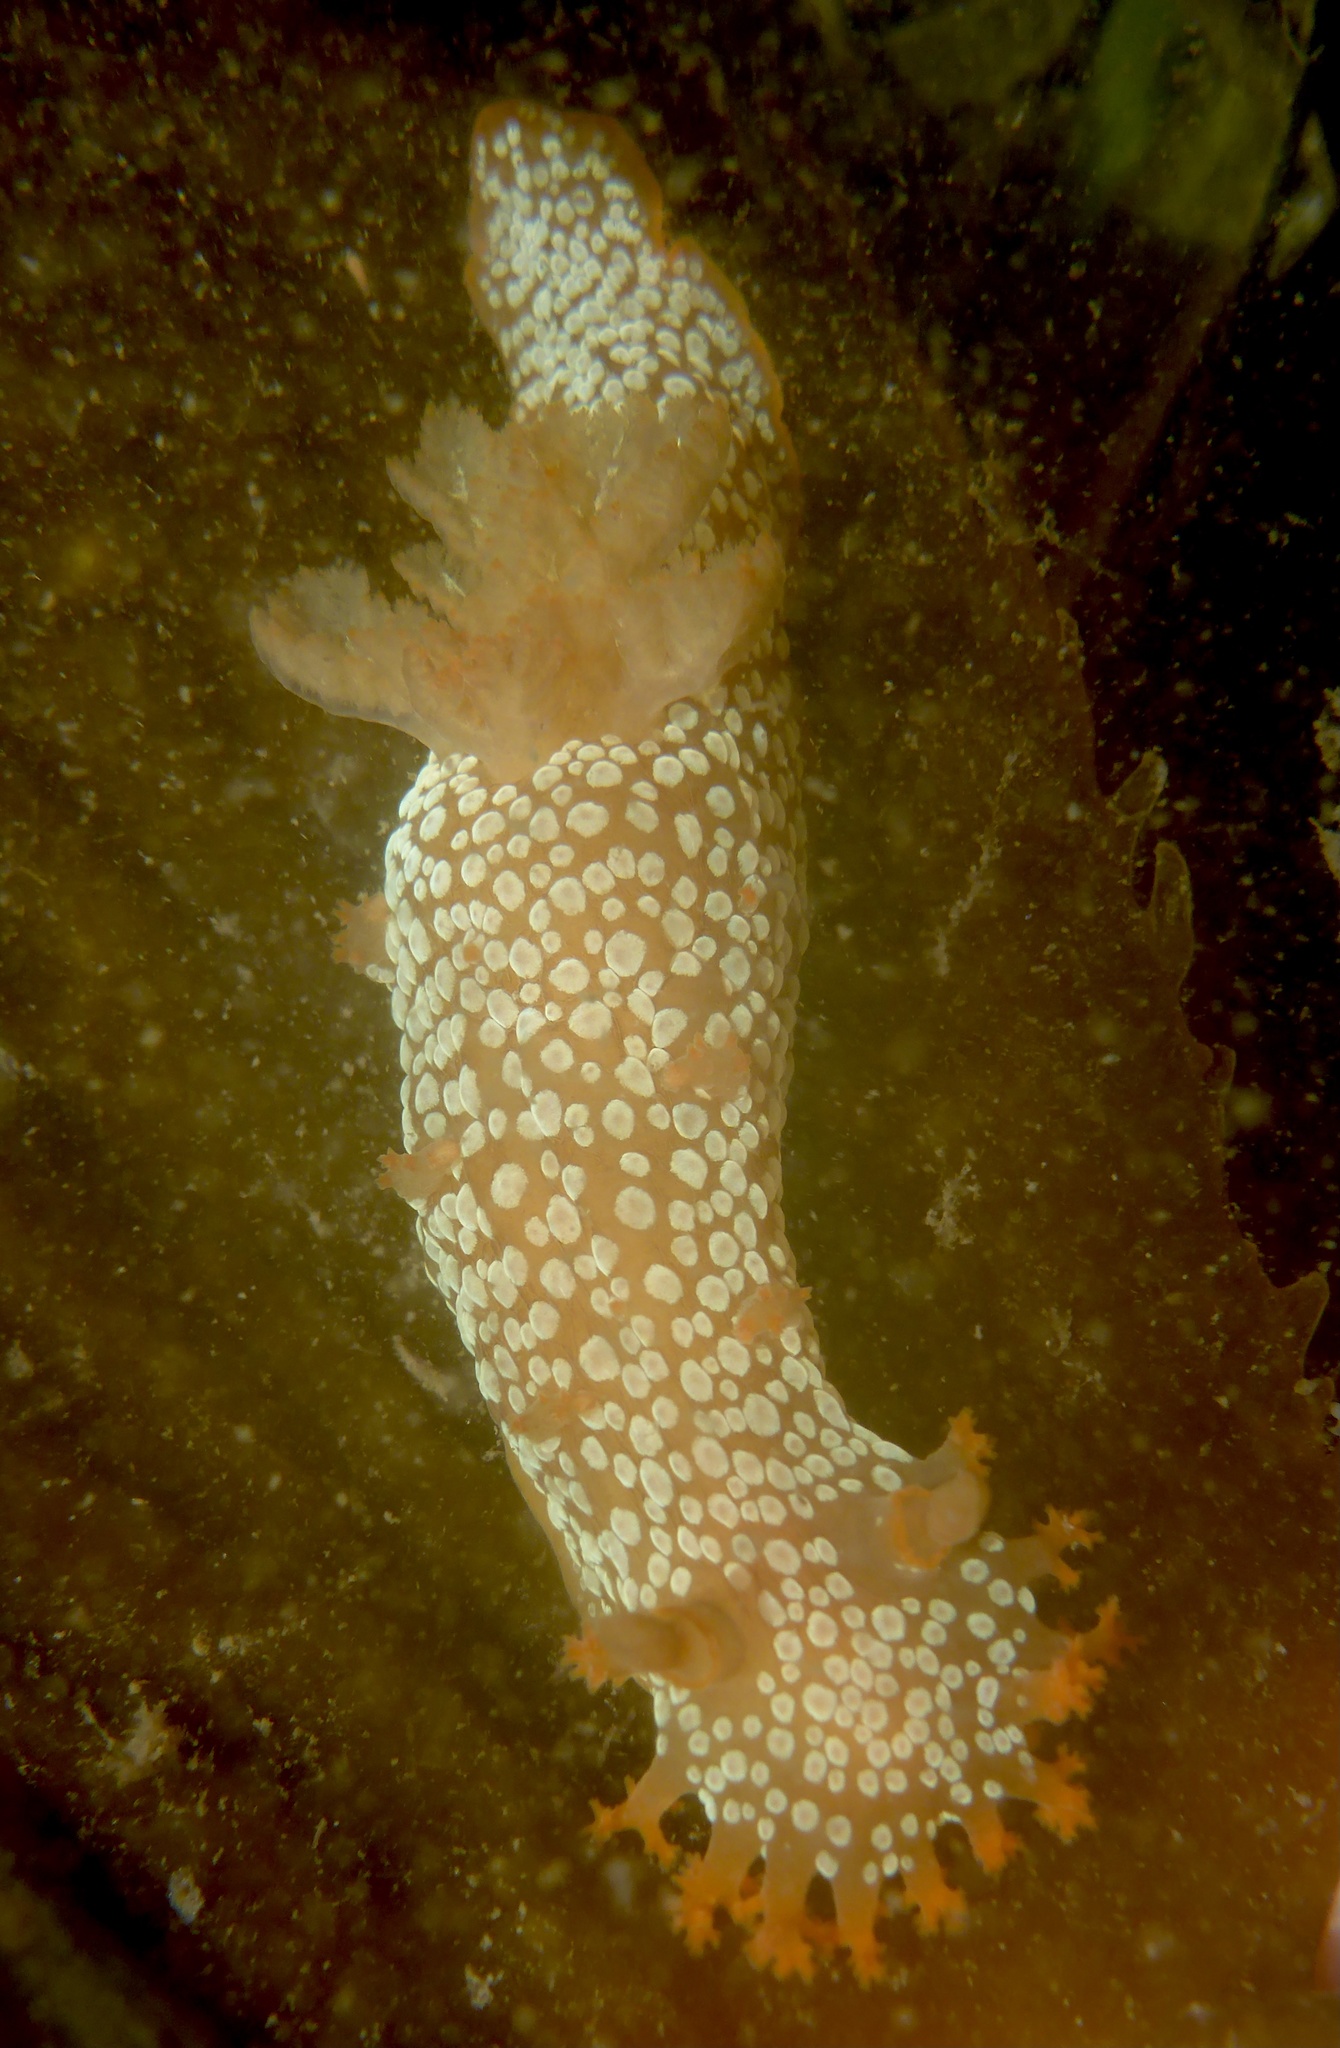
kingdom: Animalia
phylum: Mollusca
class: Gastropoda
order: Nudibranchia
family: Polyceridae
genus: Triopha
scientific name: Triopha maculata
